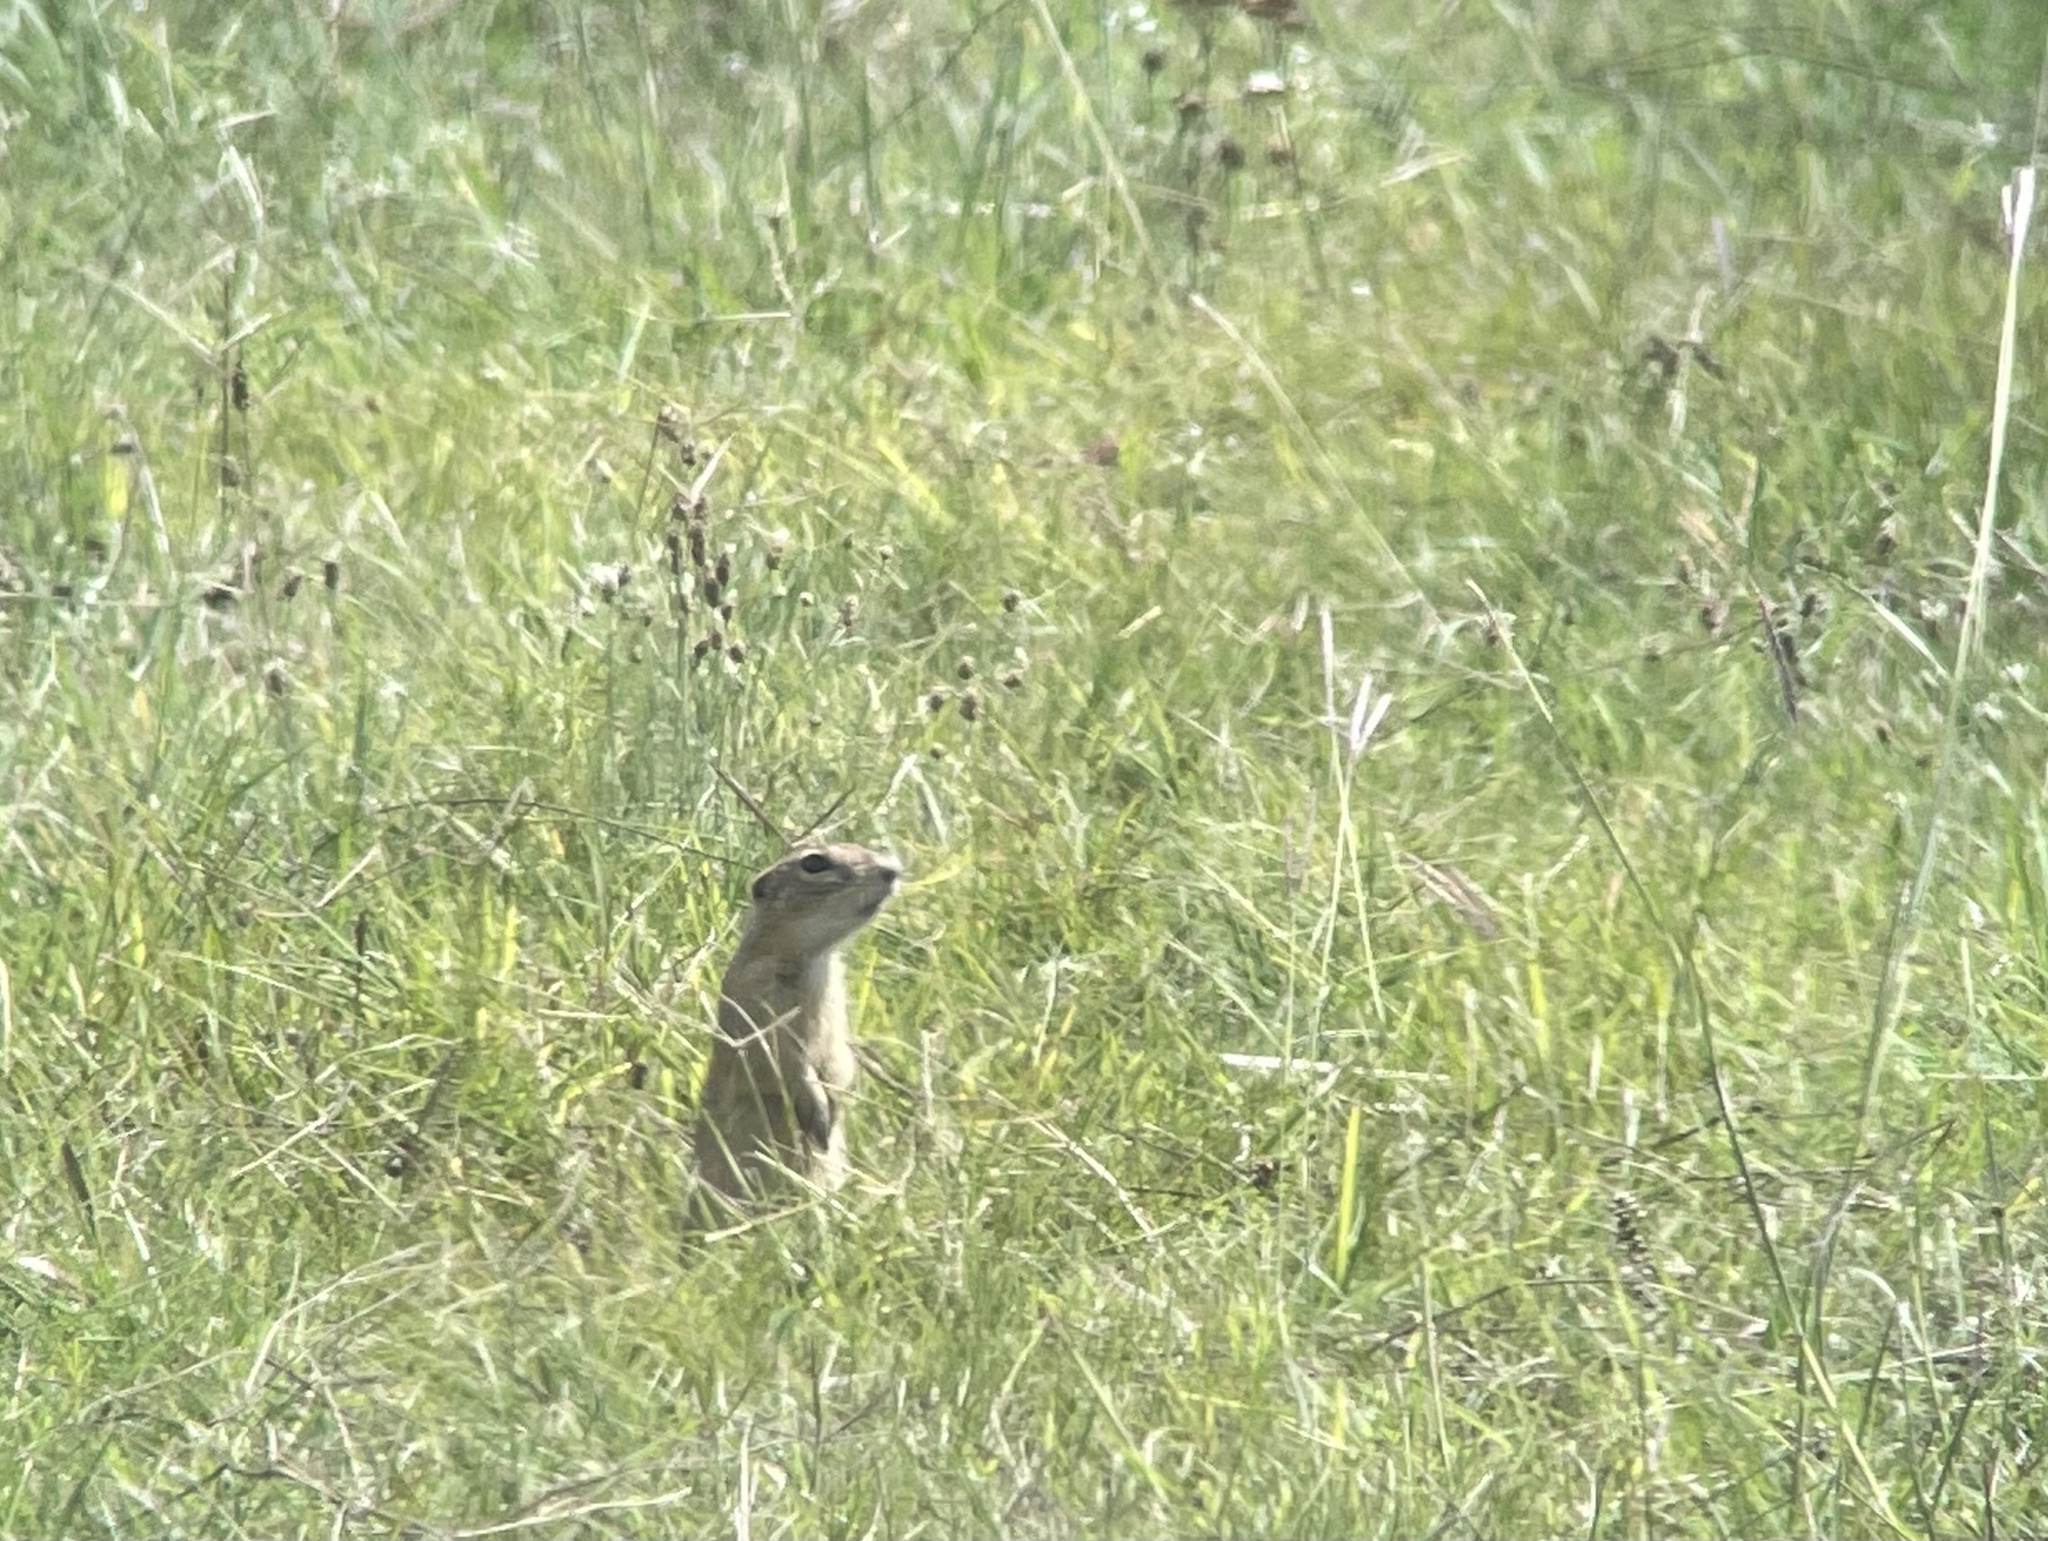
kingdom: Animalia
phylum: Chordata
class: Mammalia
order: Rodentia
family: Sciuridae
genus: Spermophilus
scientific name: Spermophilus citellus
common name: European ground squirrel
